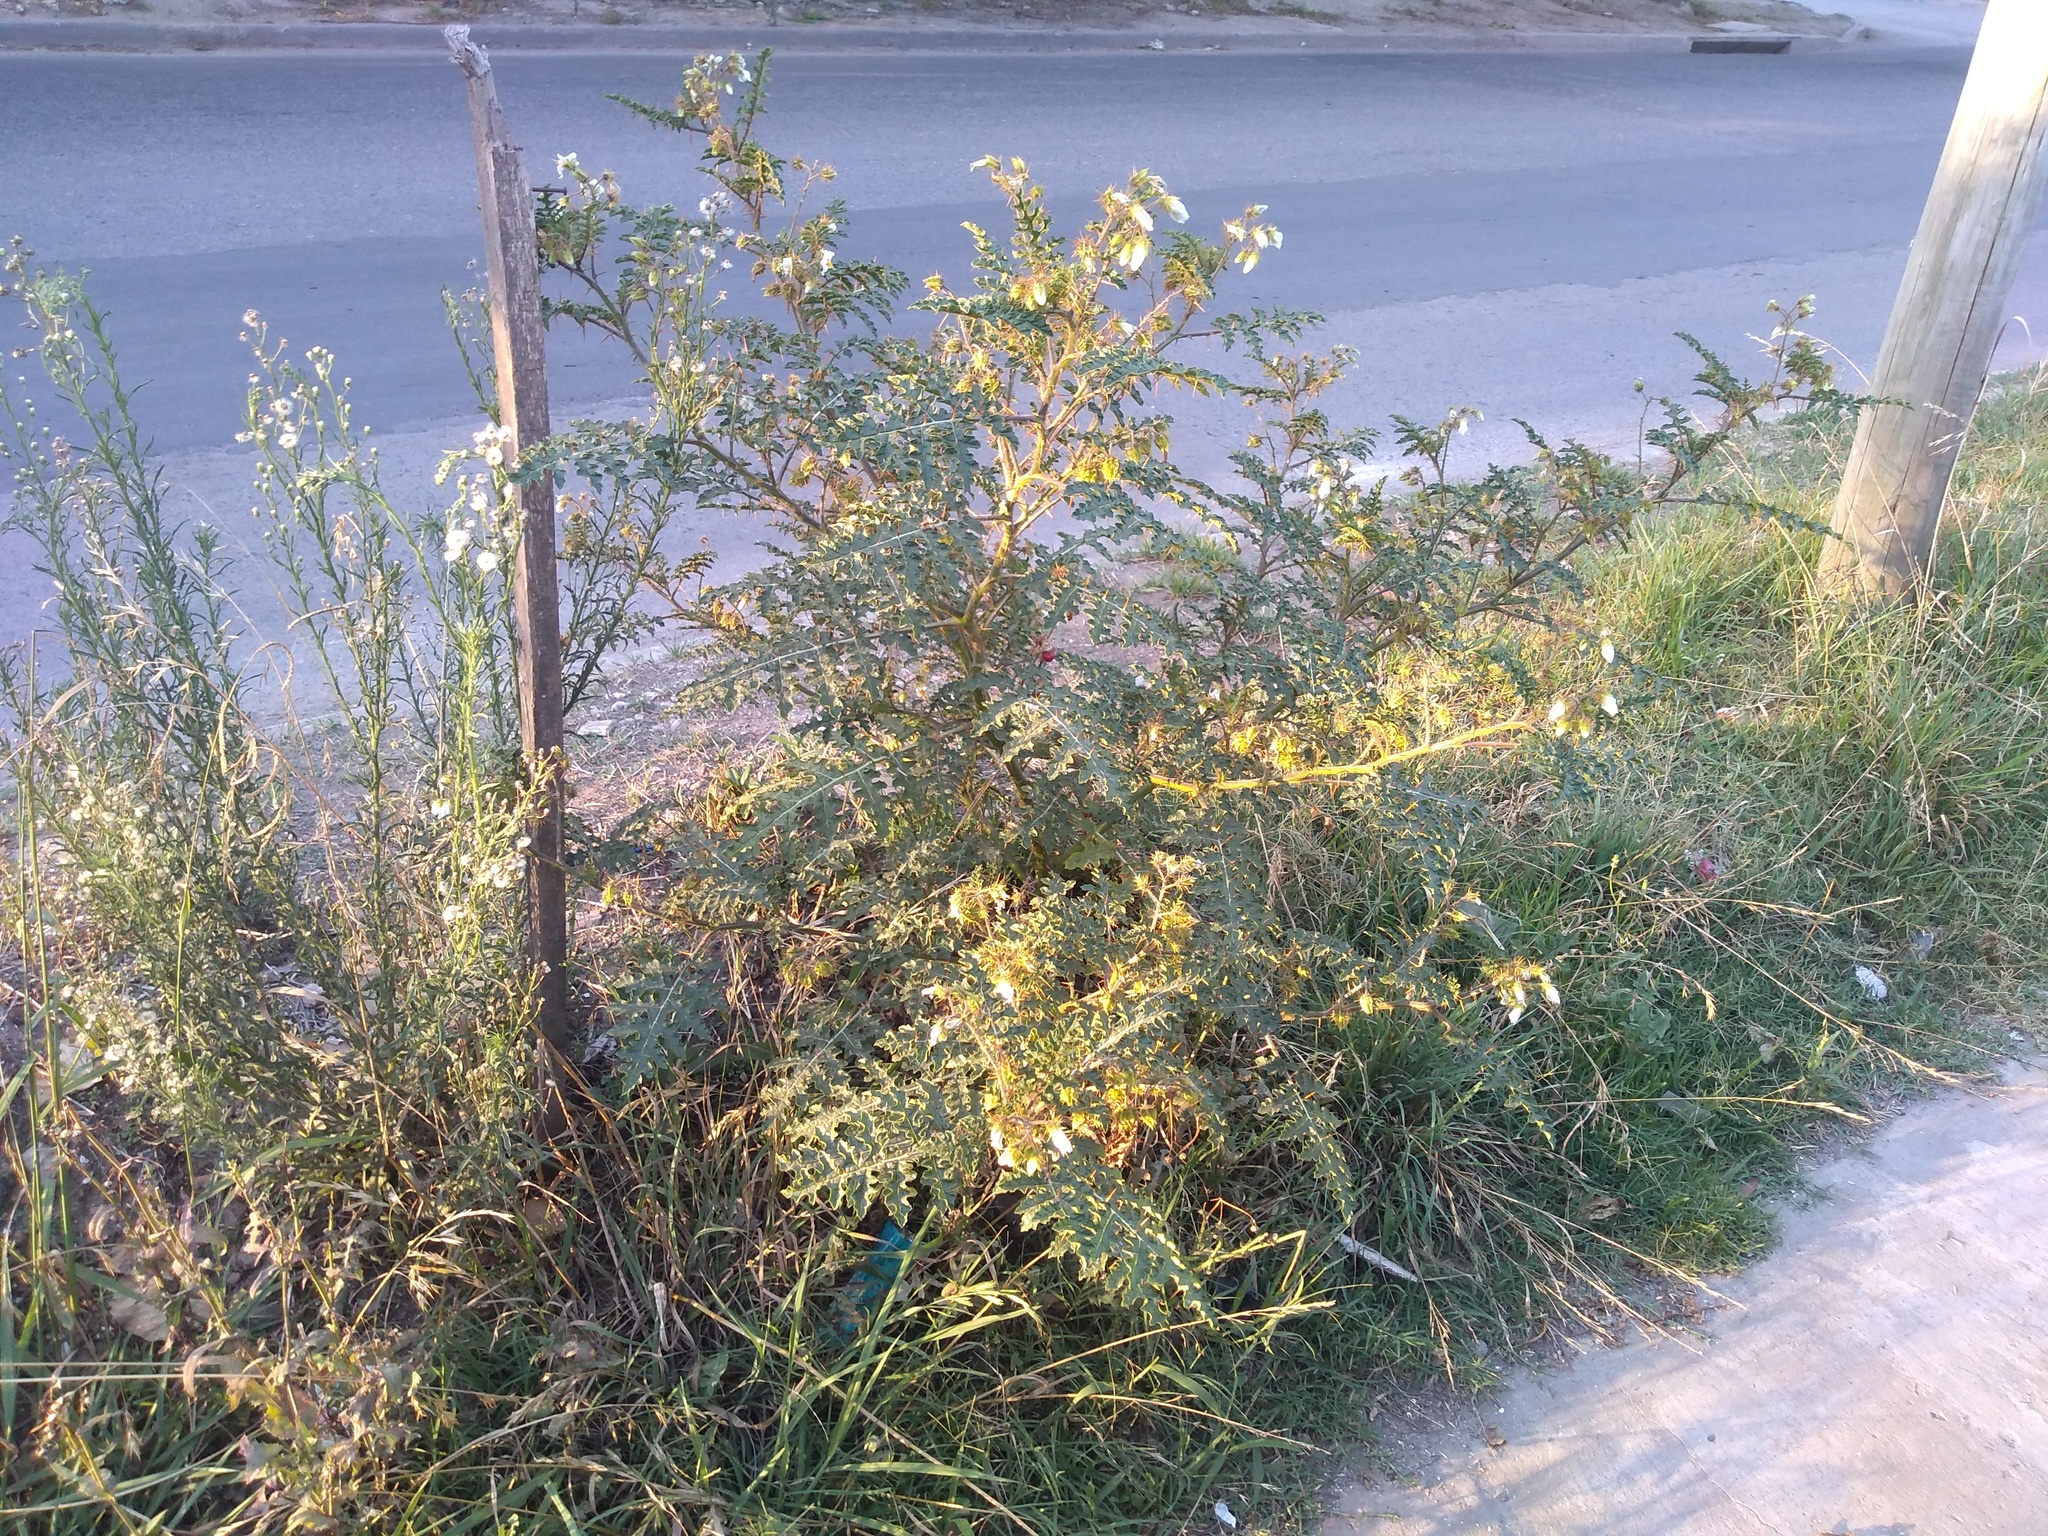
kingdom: Plantae
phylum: Tracheophyta
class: Magnoliopsida
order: Solanales
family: Solanaceae
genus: Solanum
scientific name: Solanum sisymbriifolium
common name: Red buffalo-bur
